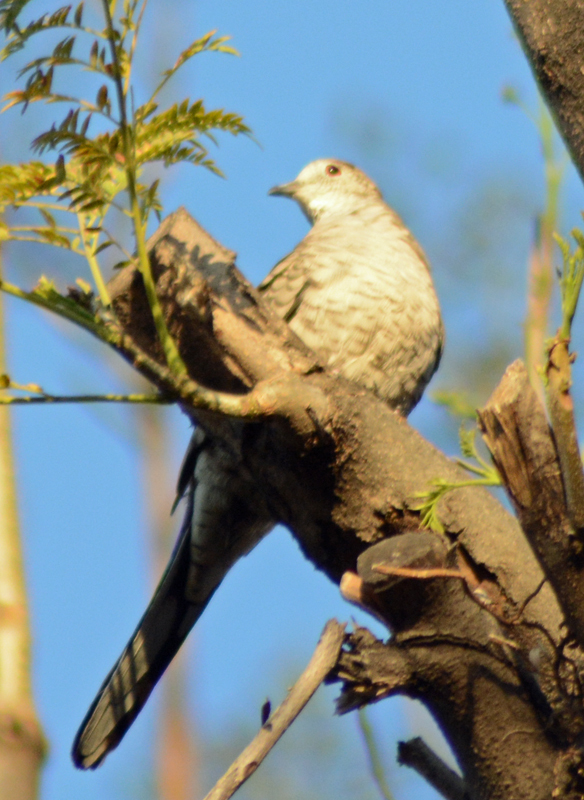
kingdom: Animalia
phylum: Chordata
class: Aves
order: Columbiformes
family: Columbidae
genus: Columbina
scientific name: Columbina inca
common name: Inca dove
